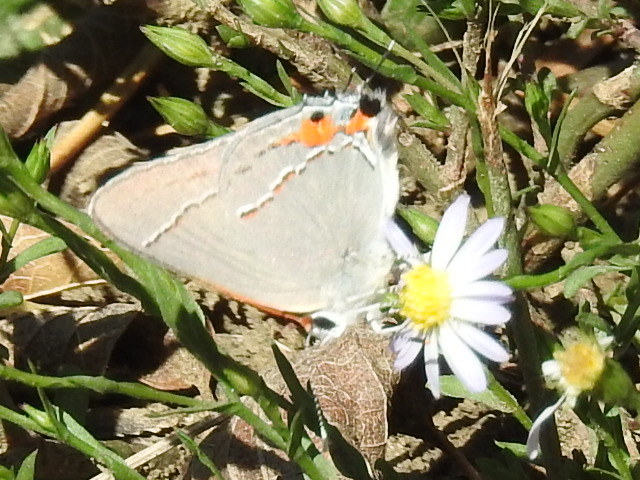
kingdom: Animalia
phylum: Arthropoda
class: Insecta
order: Lepidoptera
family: Lycaenidae
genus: Strymon
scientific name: Strymon melinus
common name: Gray hairstreak
